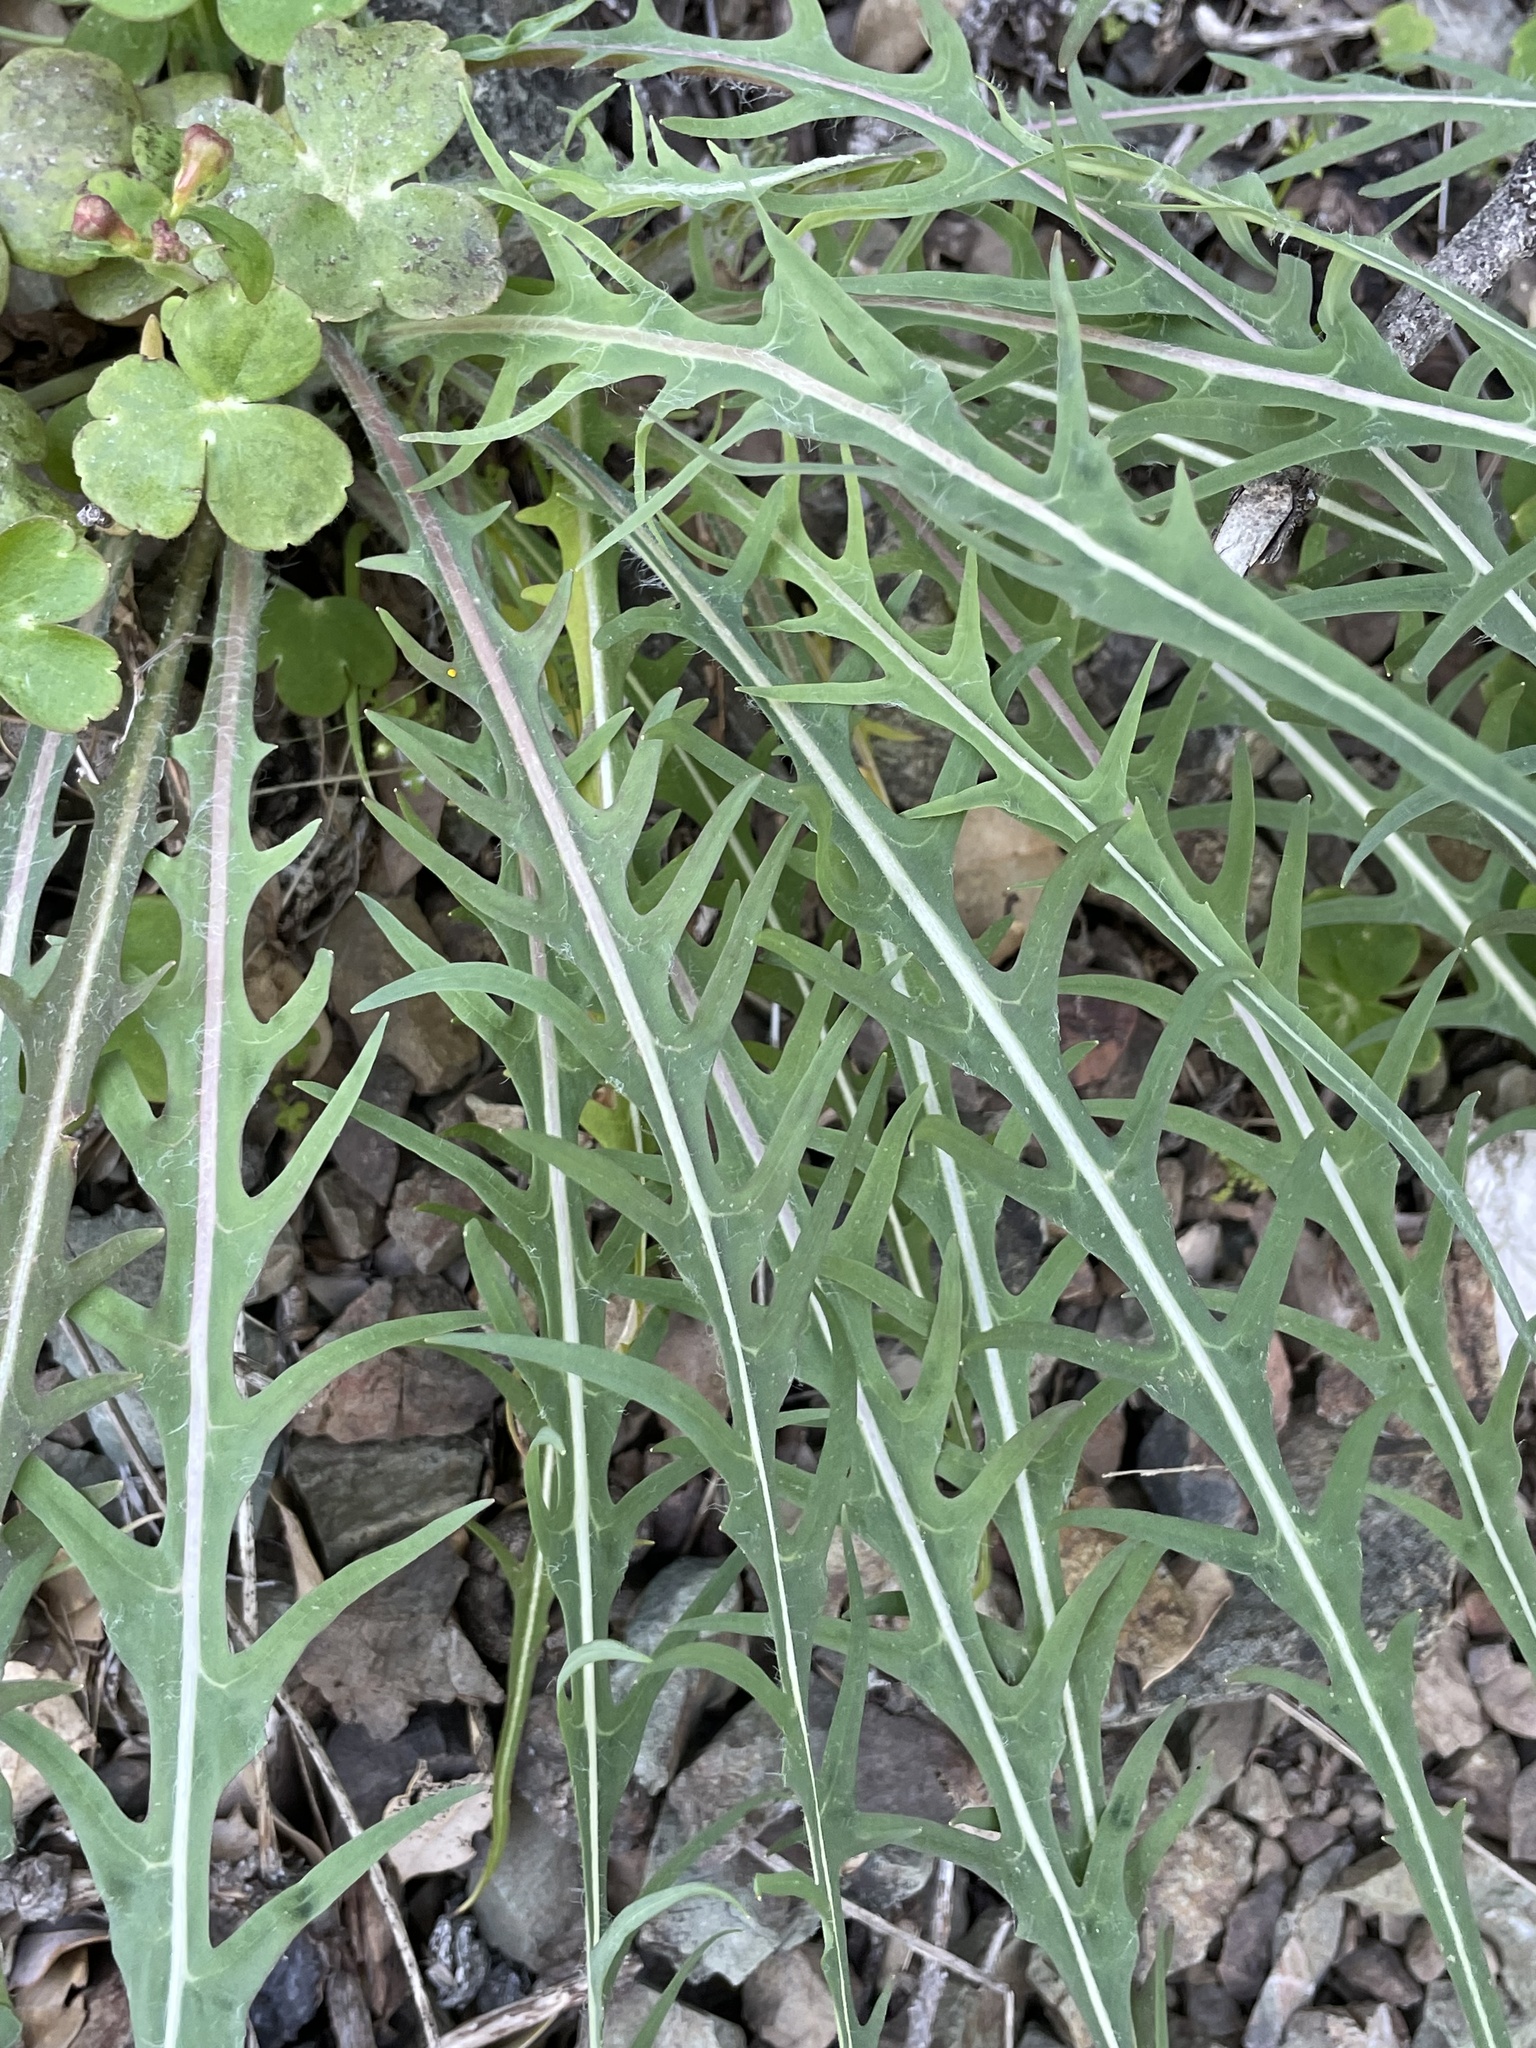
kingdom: Plantae
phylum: Tracheophyta
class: Magnoliopsida
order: Asterales
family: Asteraceae
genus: Agoseris
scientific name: Agoseris retrorsa
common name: Spearleaf agoseris
